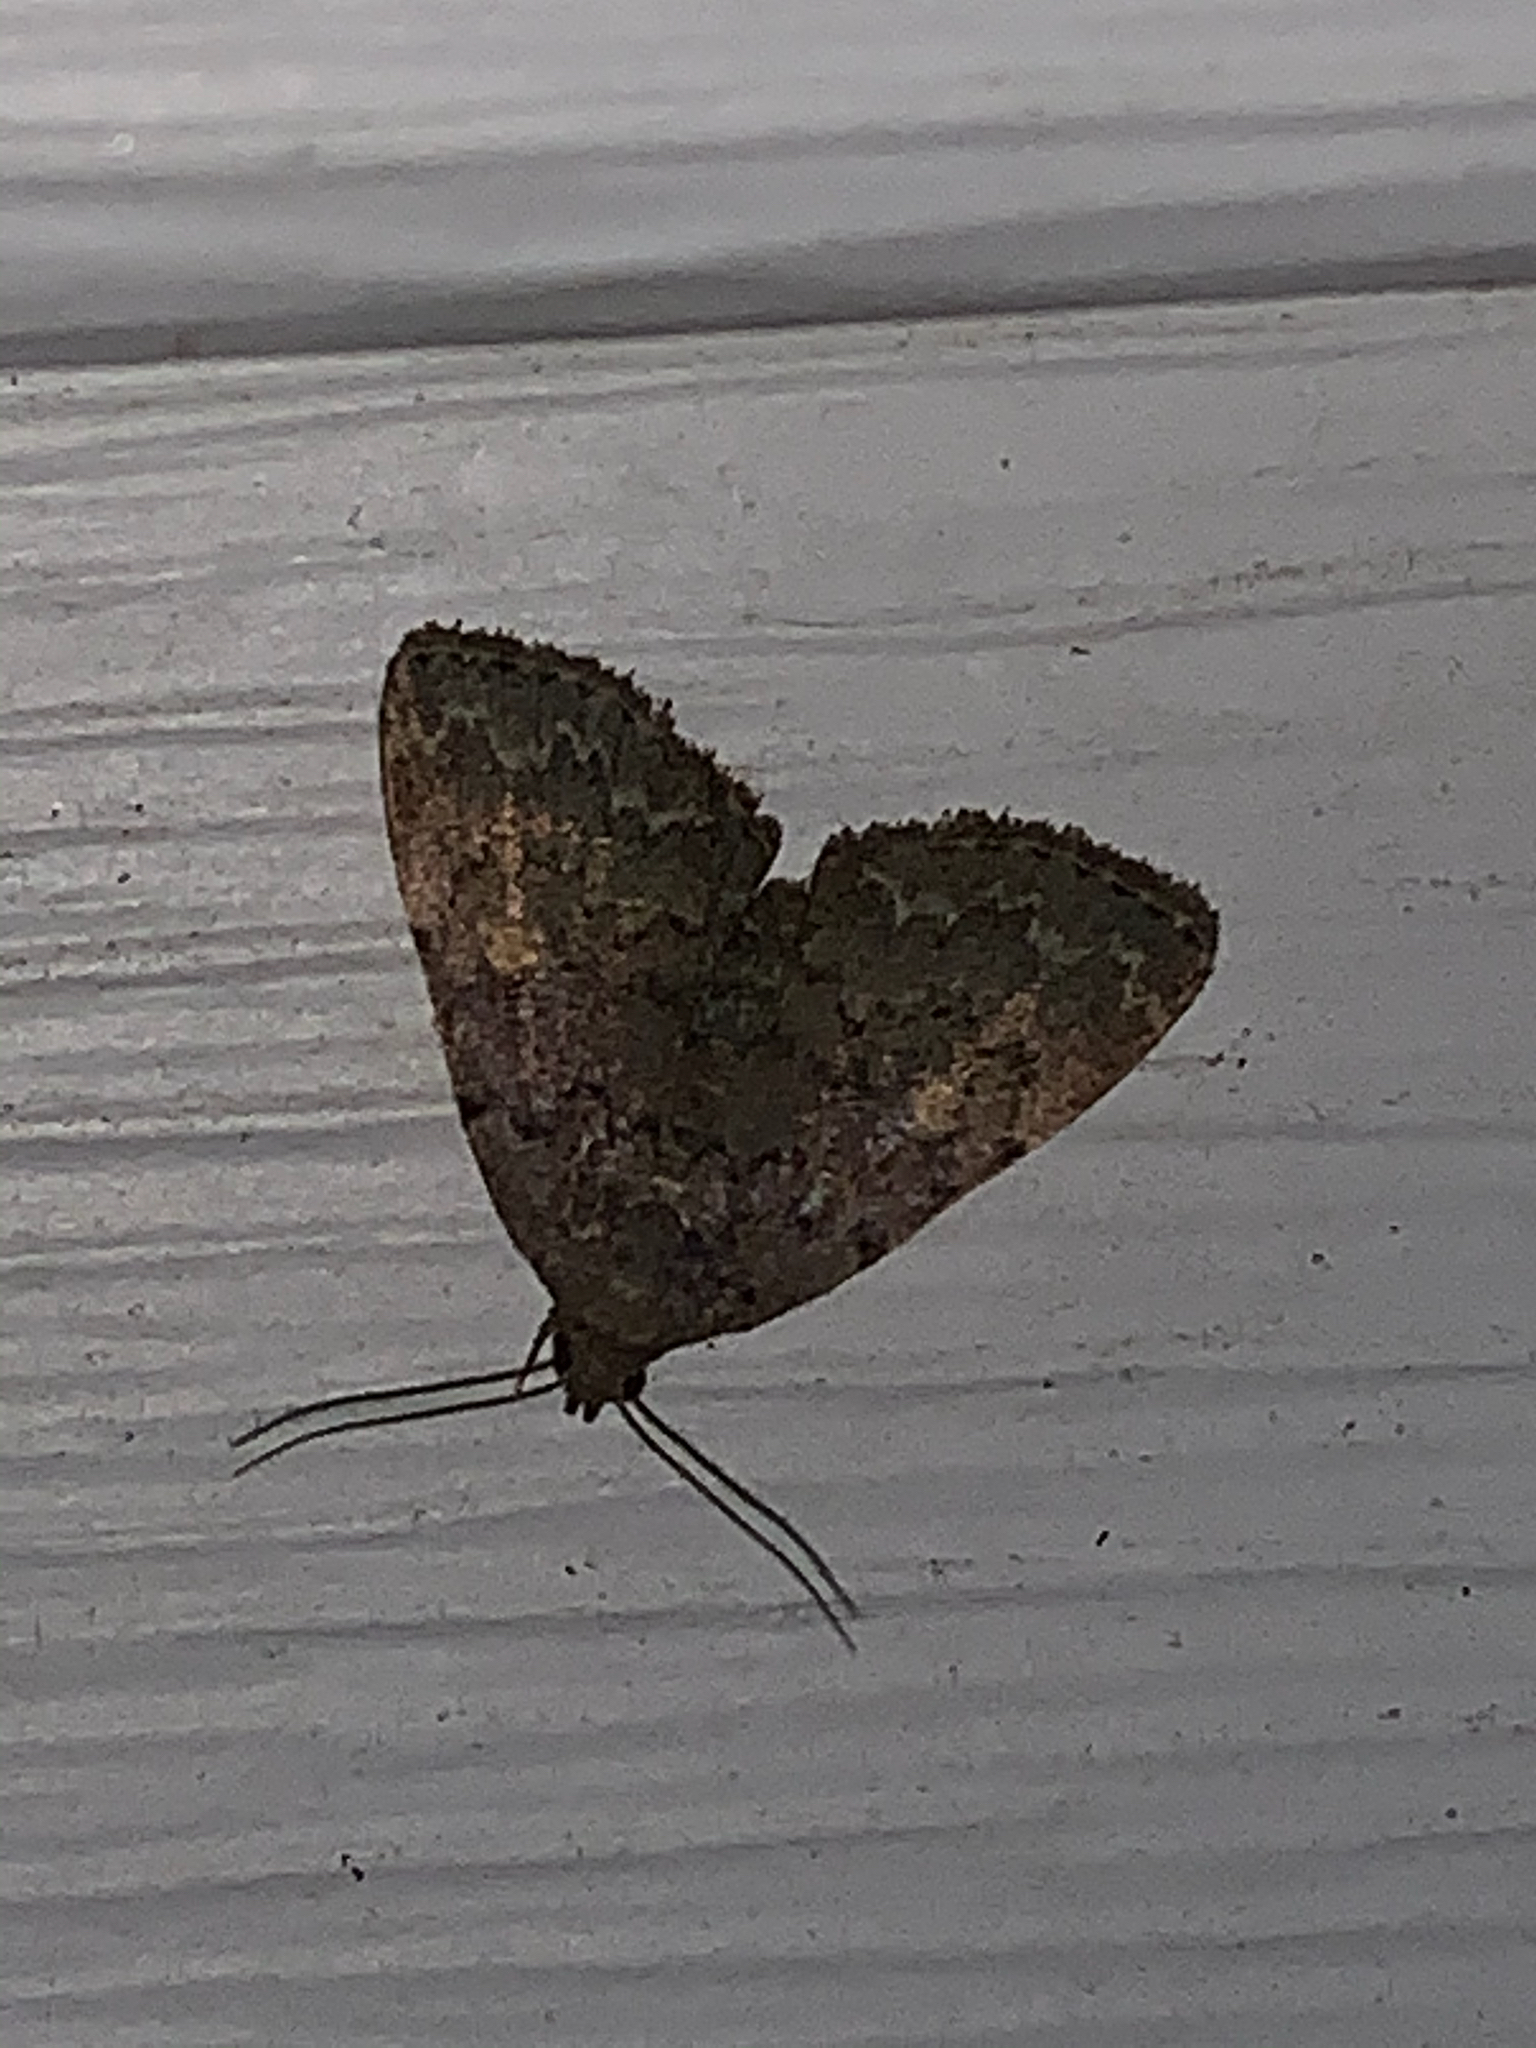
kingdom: Animalia
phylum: Arthropoda
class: Insecta
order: Lepidoptera
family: Erebidae
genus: Idia
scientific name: Idia aemula
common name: Common idia moth
